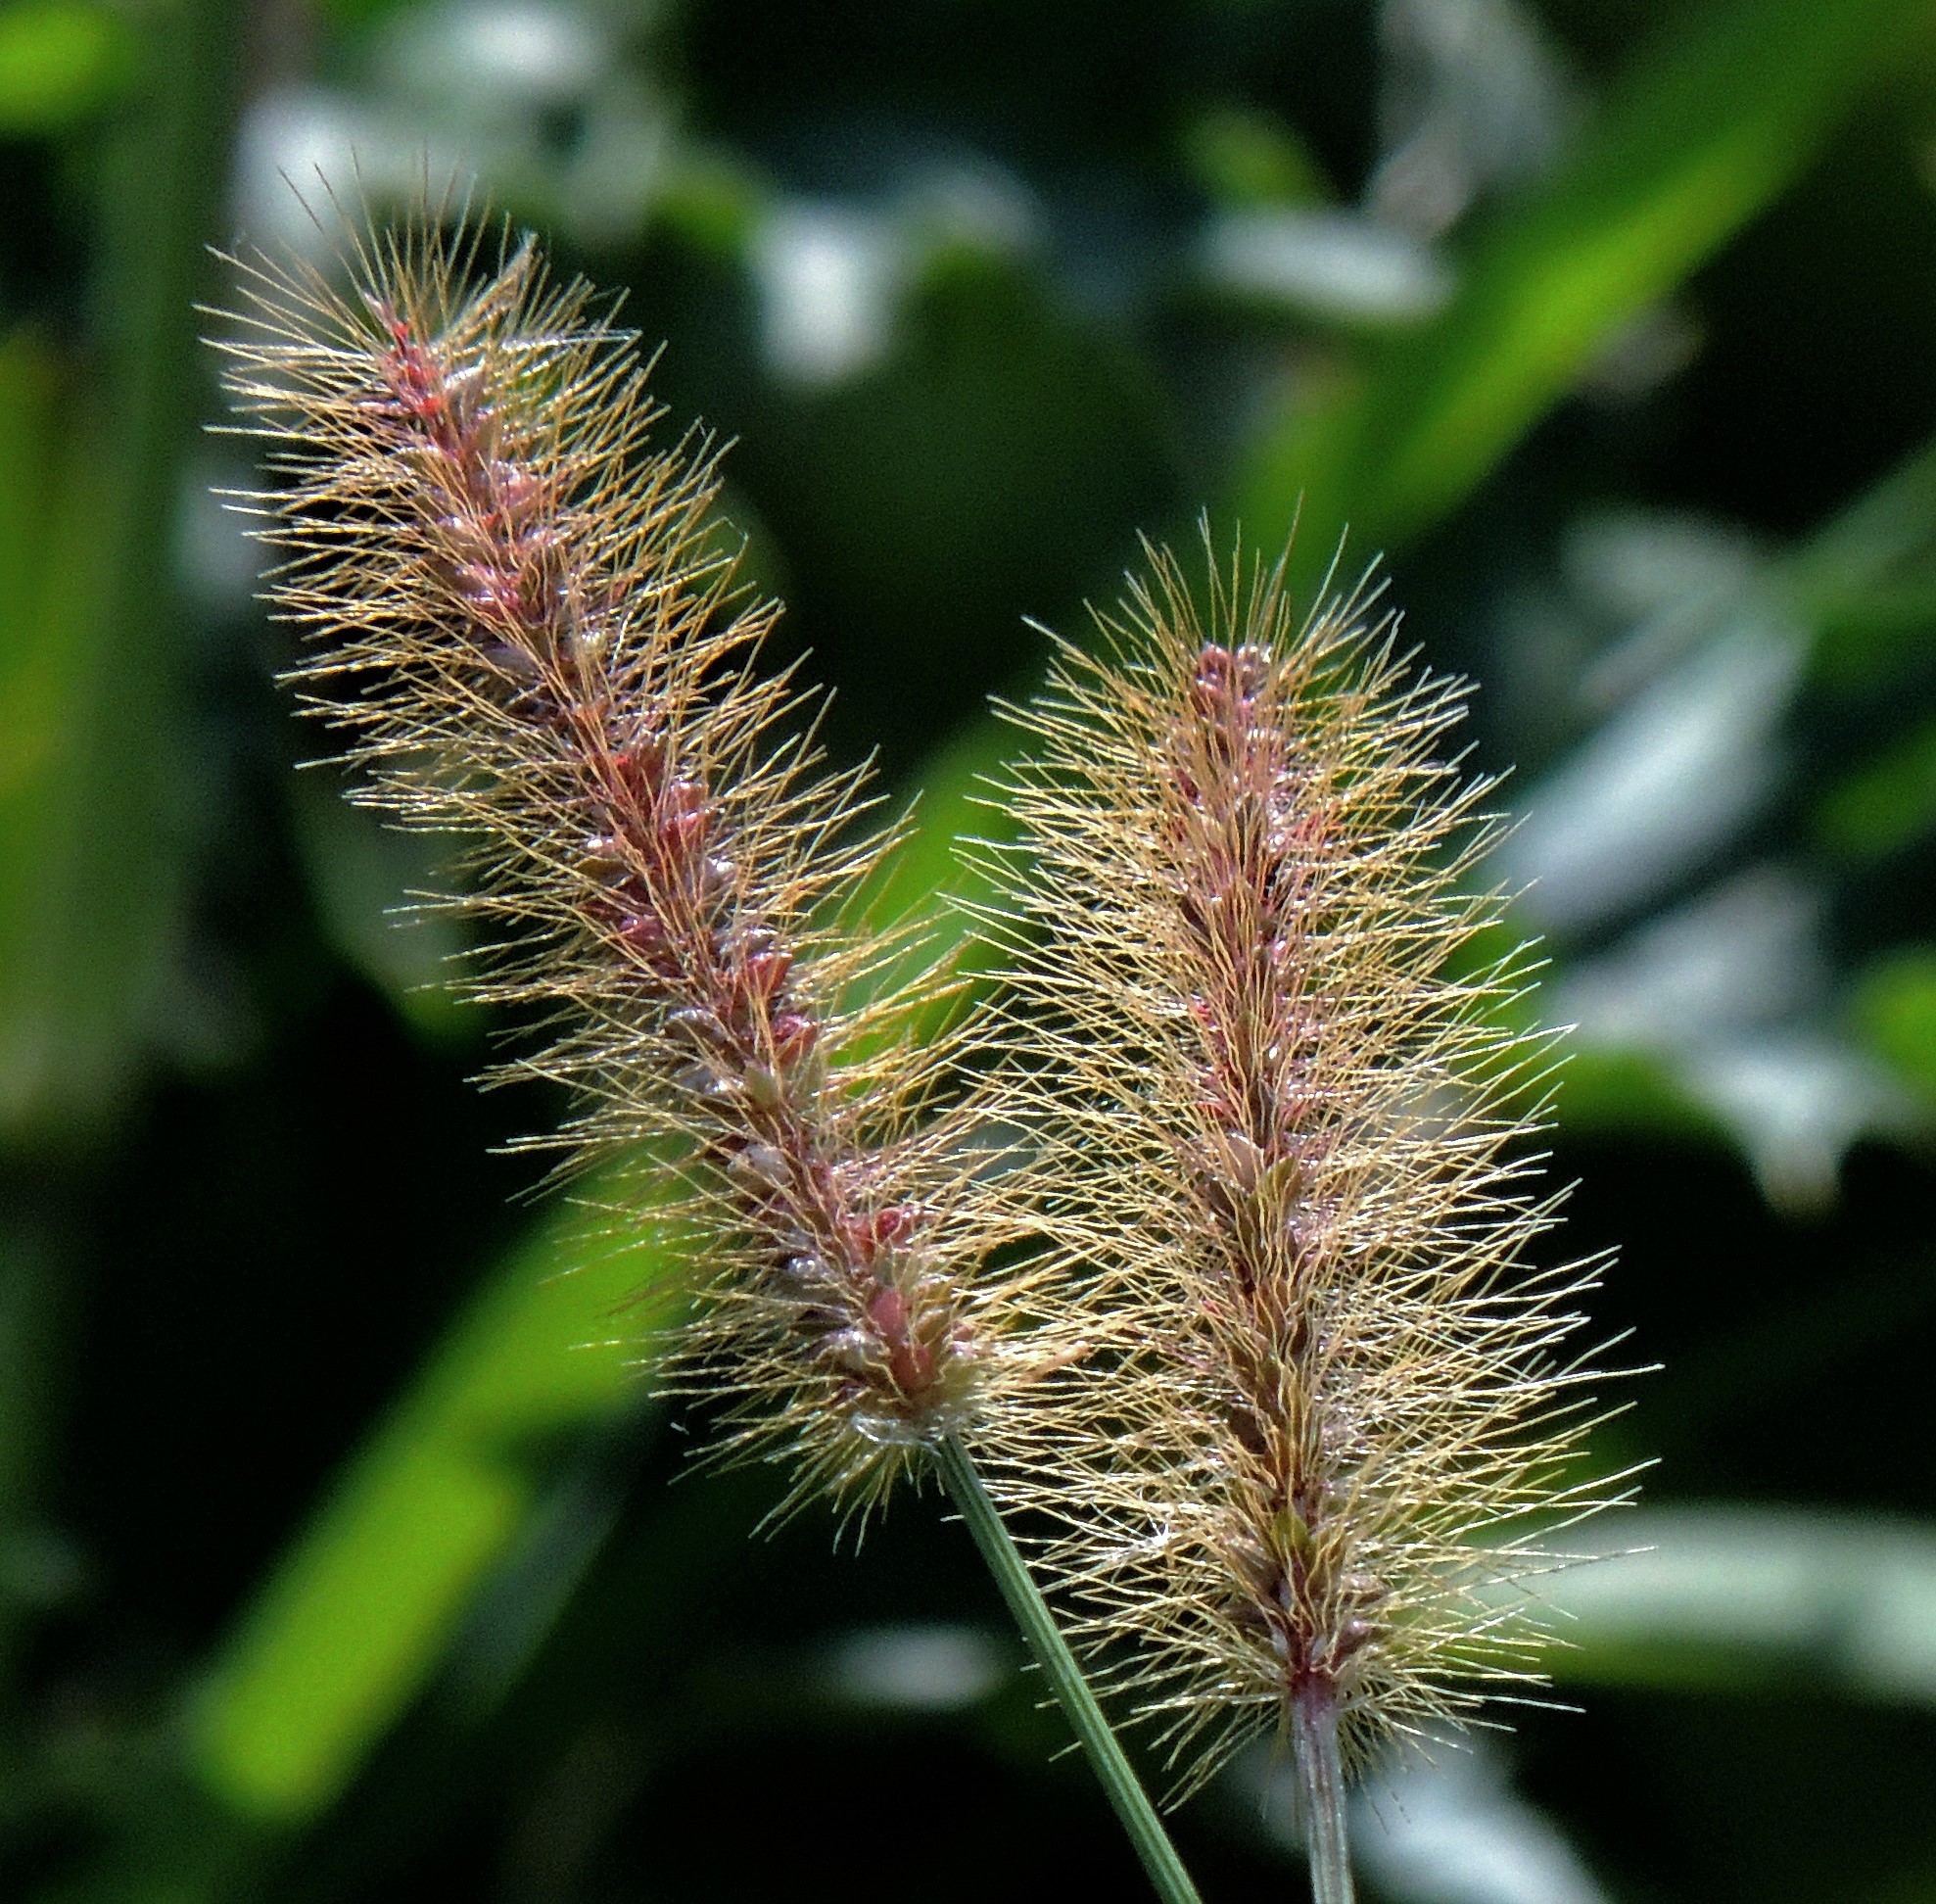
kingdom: Plantae
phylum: Tracheophyta
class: Liliopsida
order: Poales
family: Poaceae
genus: Setaria
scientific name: Setaria parviflora
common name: Knotroot bristle-grass
